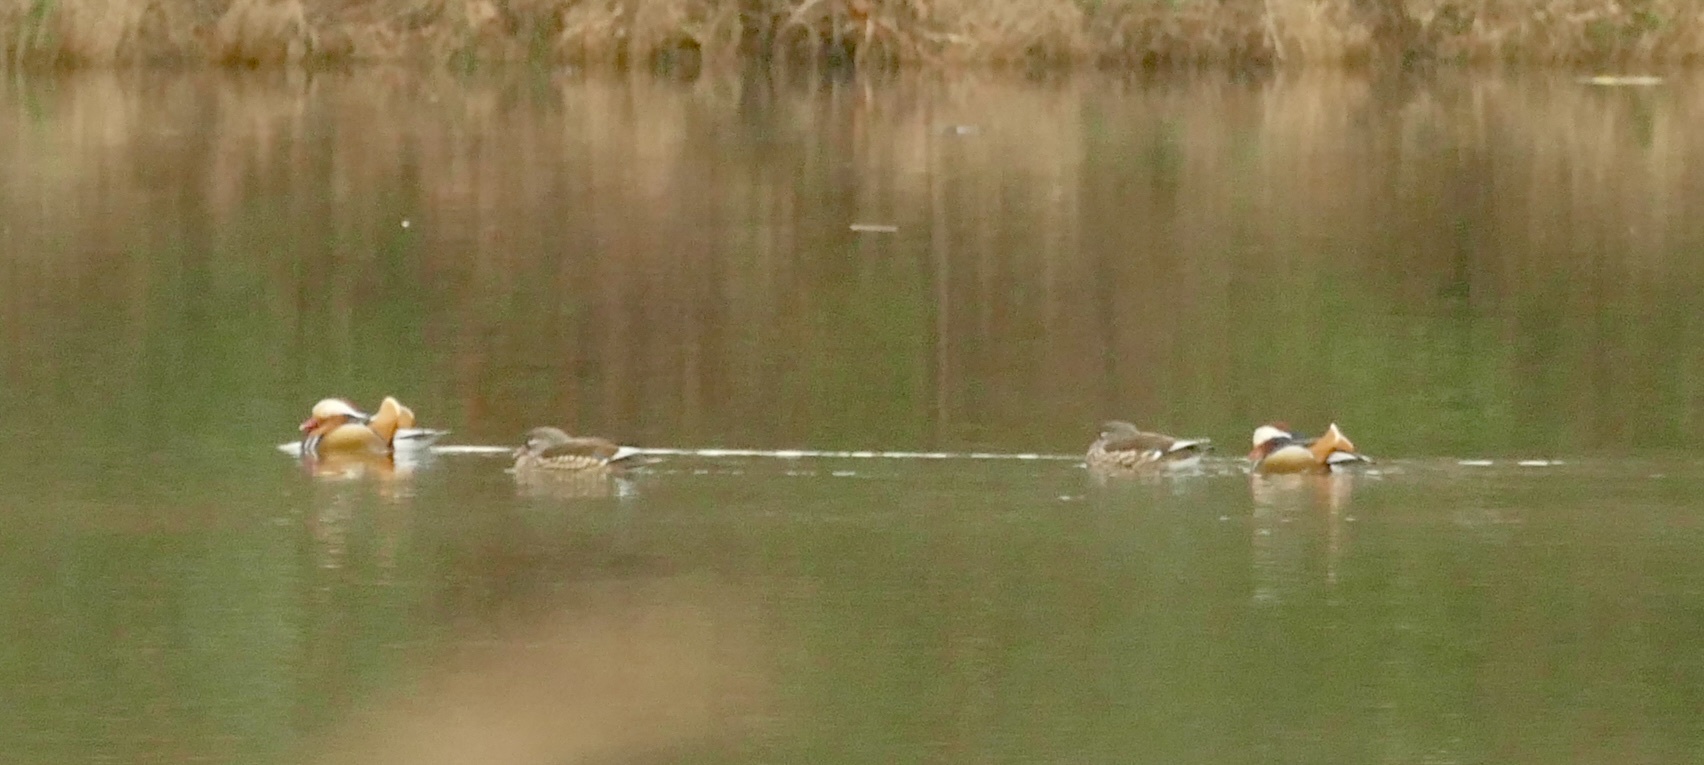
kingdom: Animalia
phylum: Chordata
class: Aves
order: Anseriformes
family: Anatidae
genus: Aix
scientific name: Aix galericulata
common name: Mandarin duck
